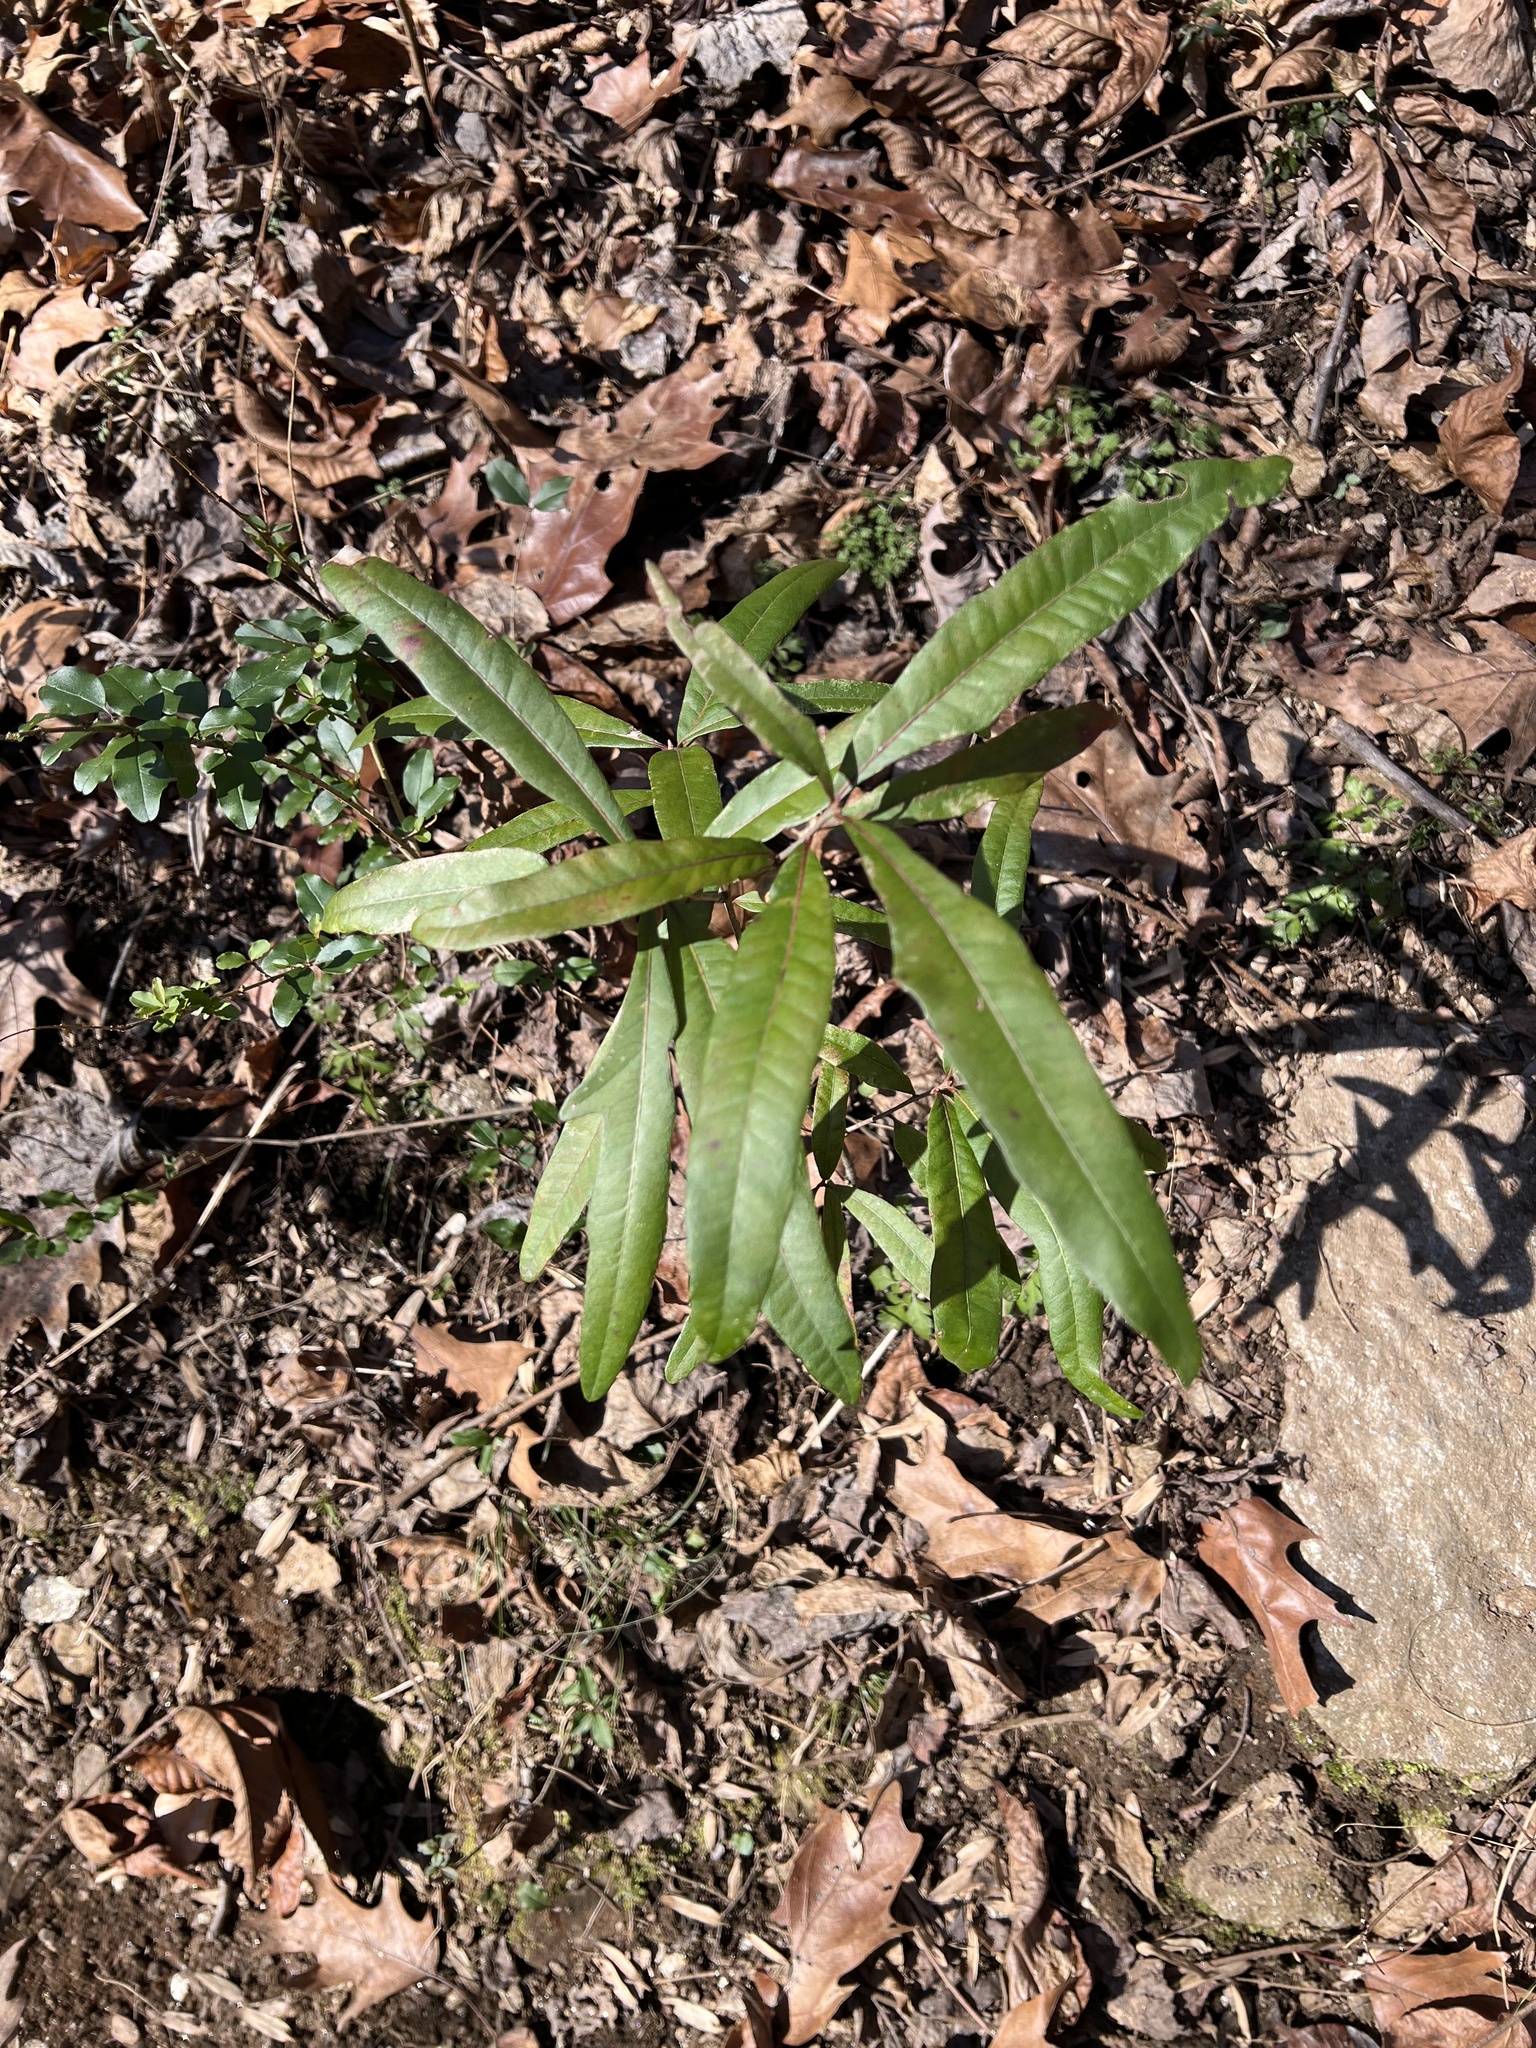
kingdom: Plantae
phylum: Tracheophyta
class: Magnoliopsida
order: Fagales
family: Fagaceae
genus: Quercus
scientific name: Quercus phellos
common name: Willow oak
